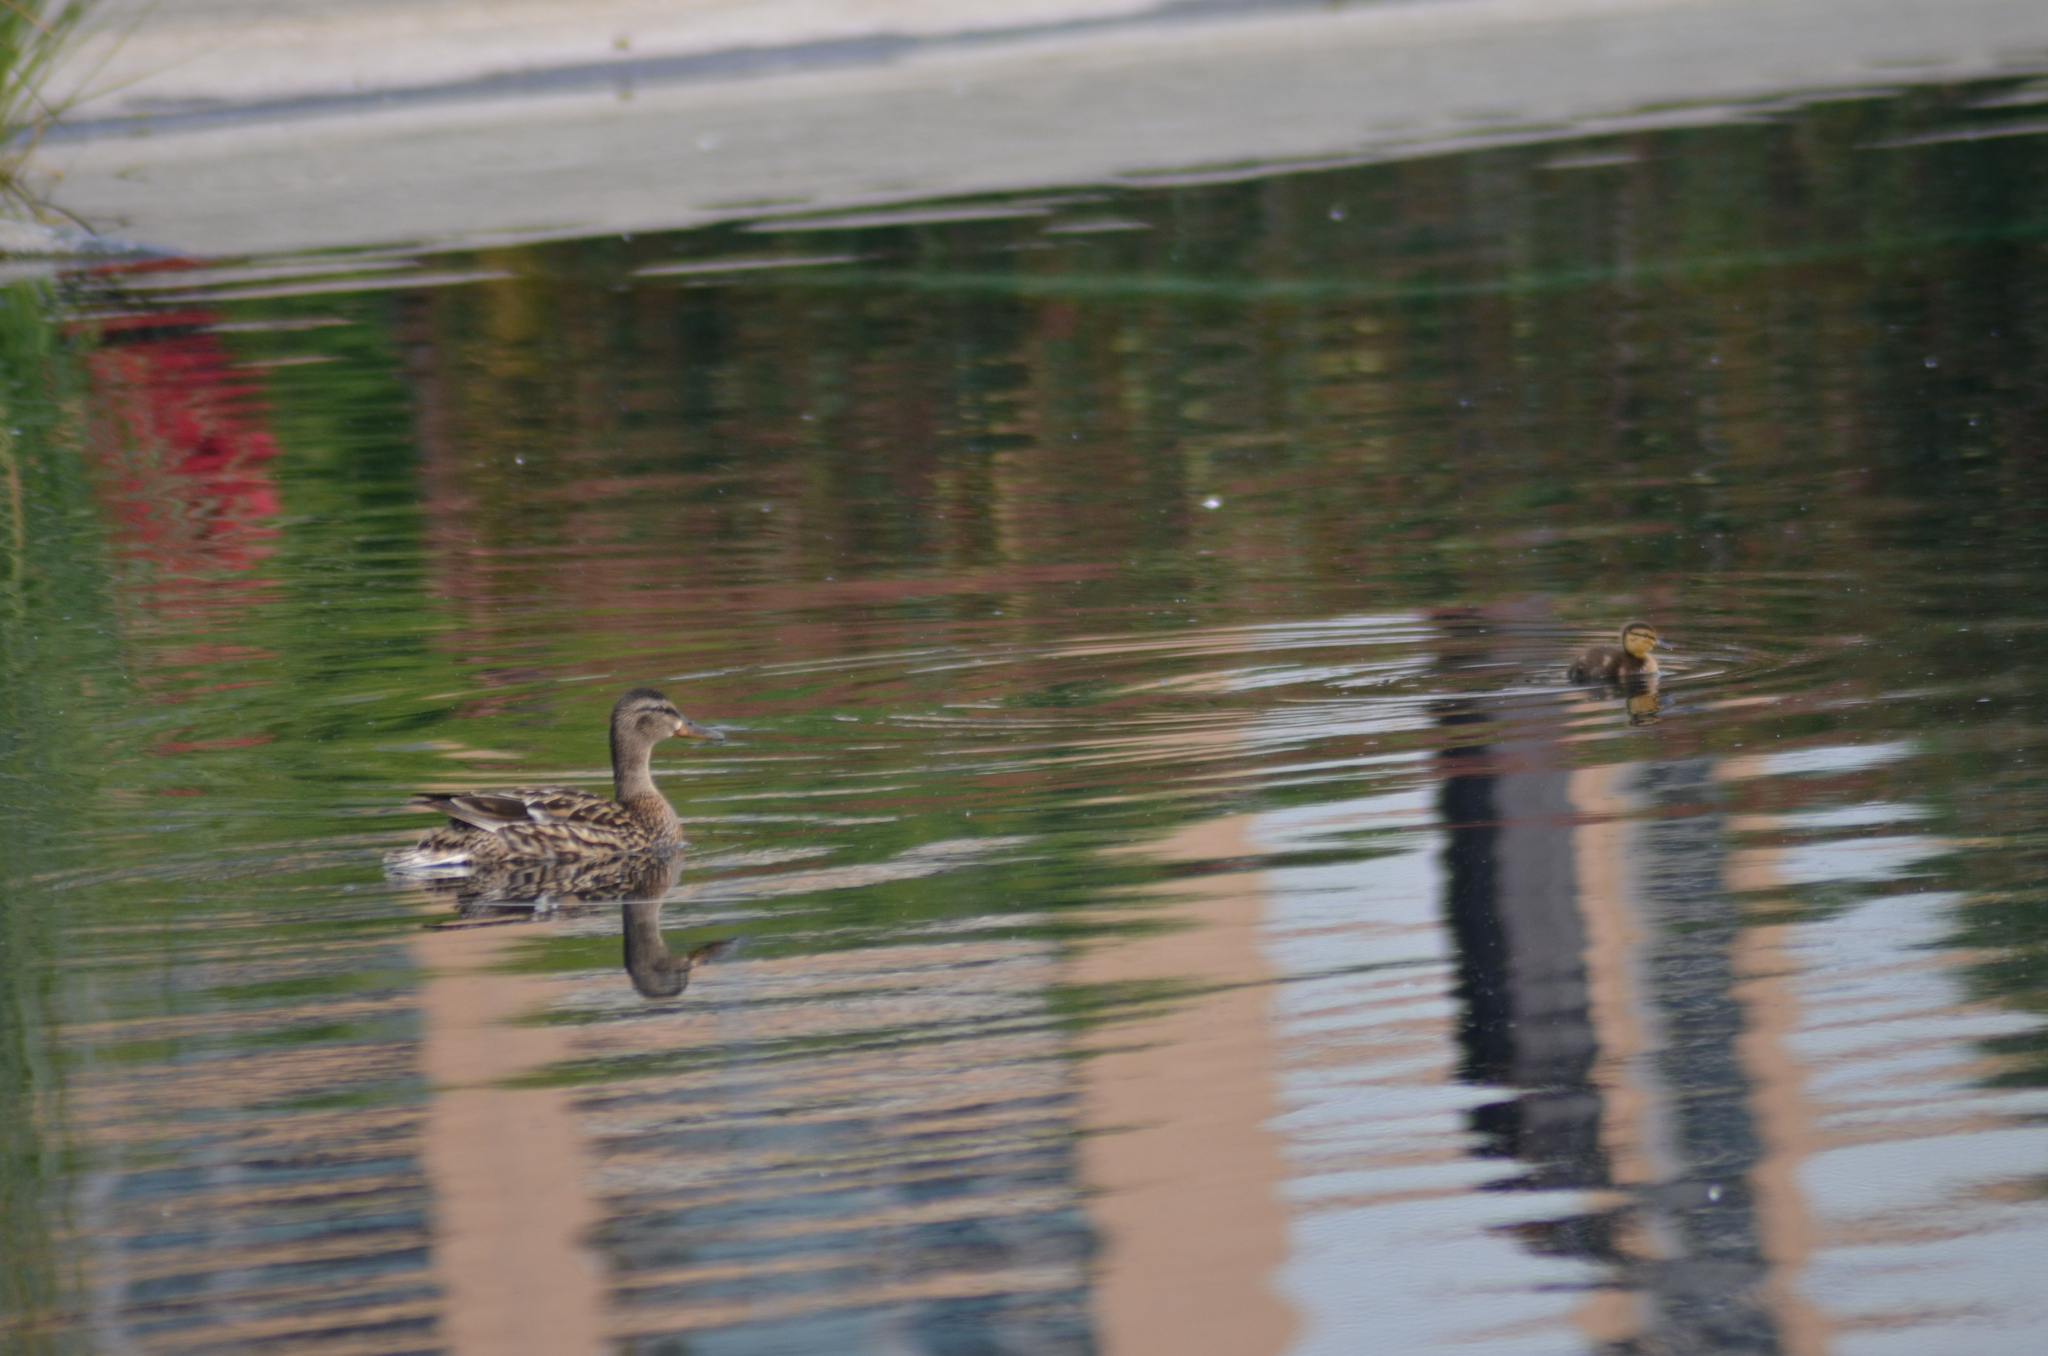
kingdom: Animalia
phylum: Chordata
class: Aves
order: Anseriformes
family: Anatidae
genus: Anas
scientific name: Anas platyrhynchos
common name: Mallard
